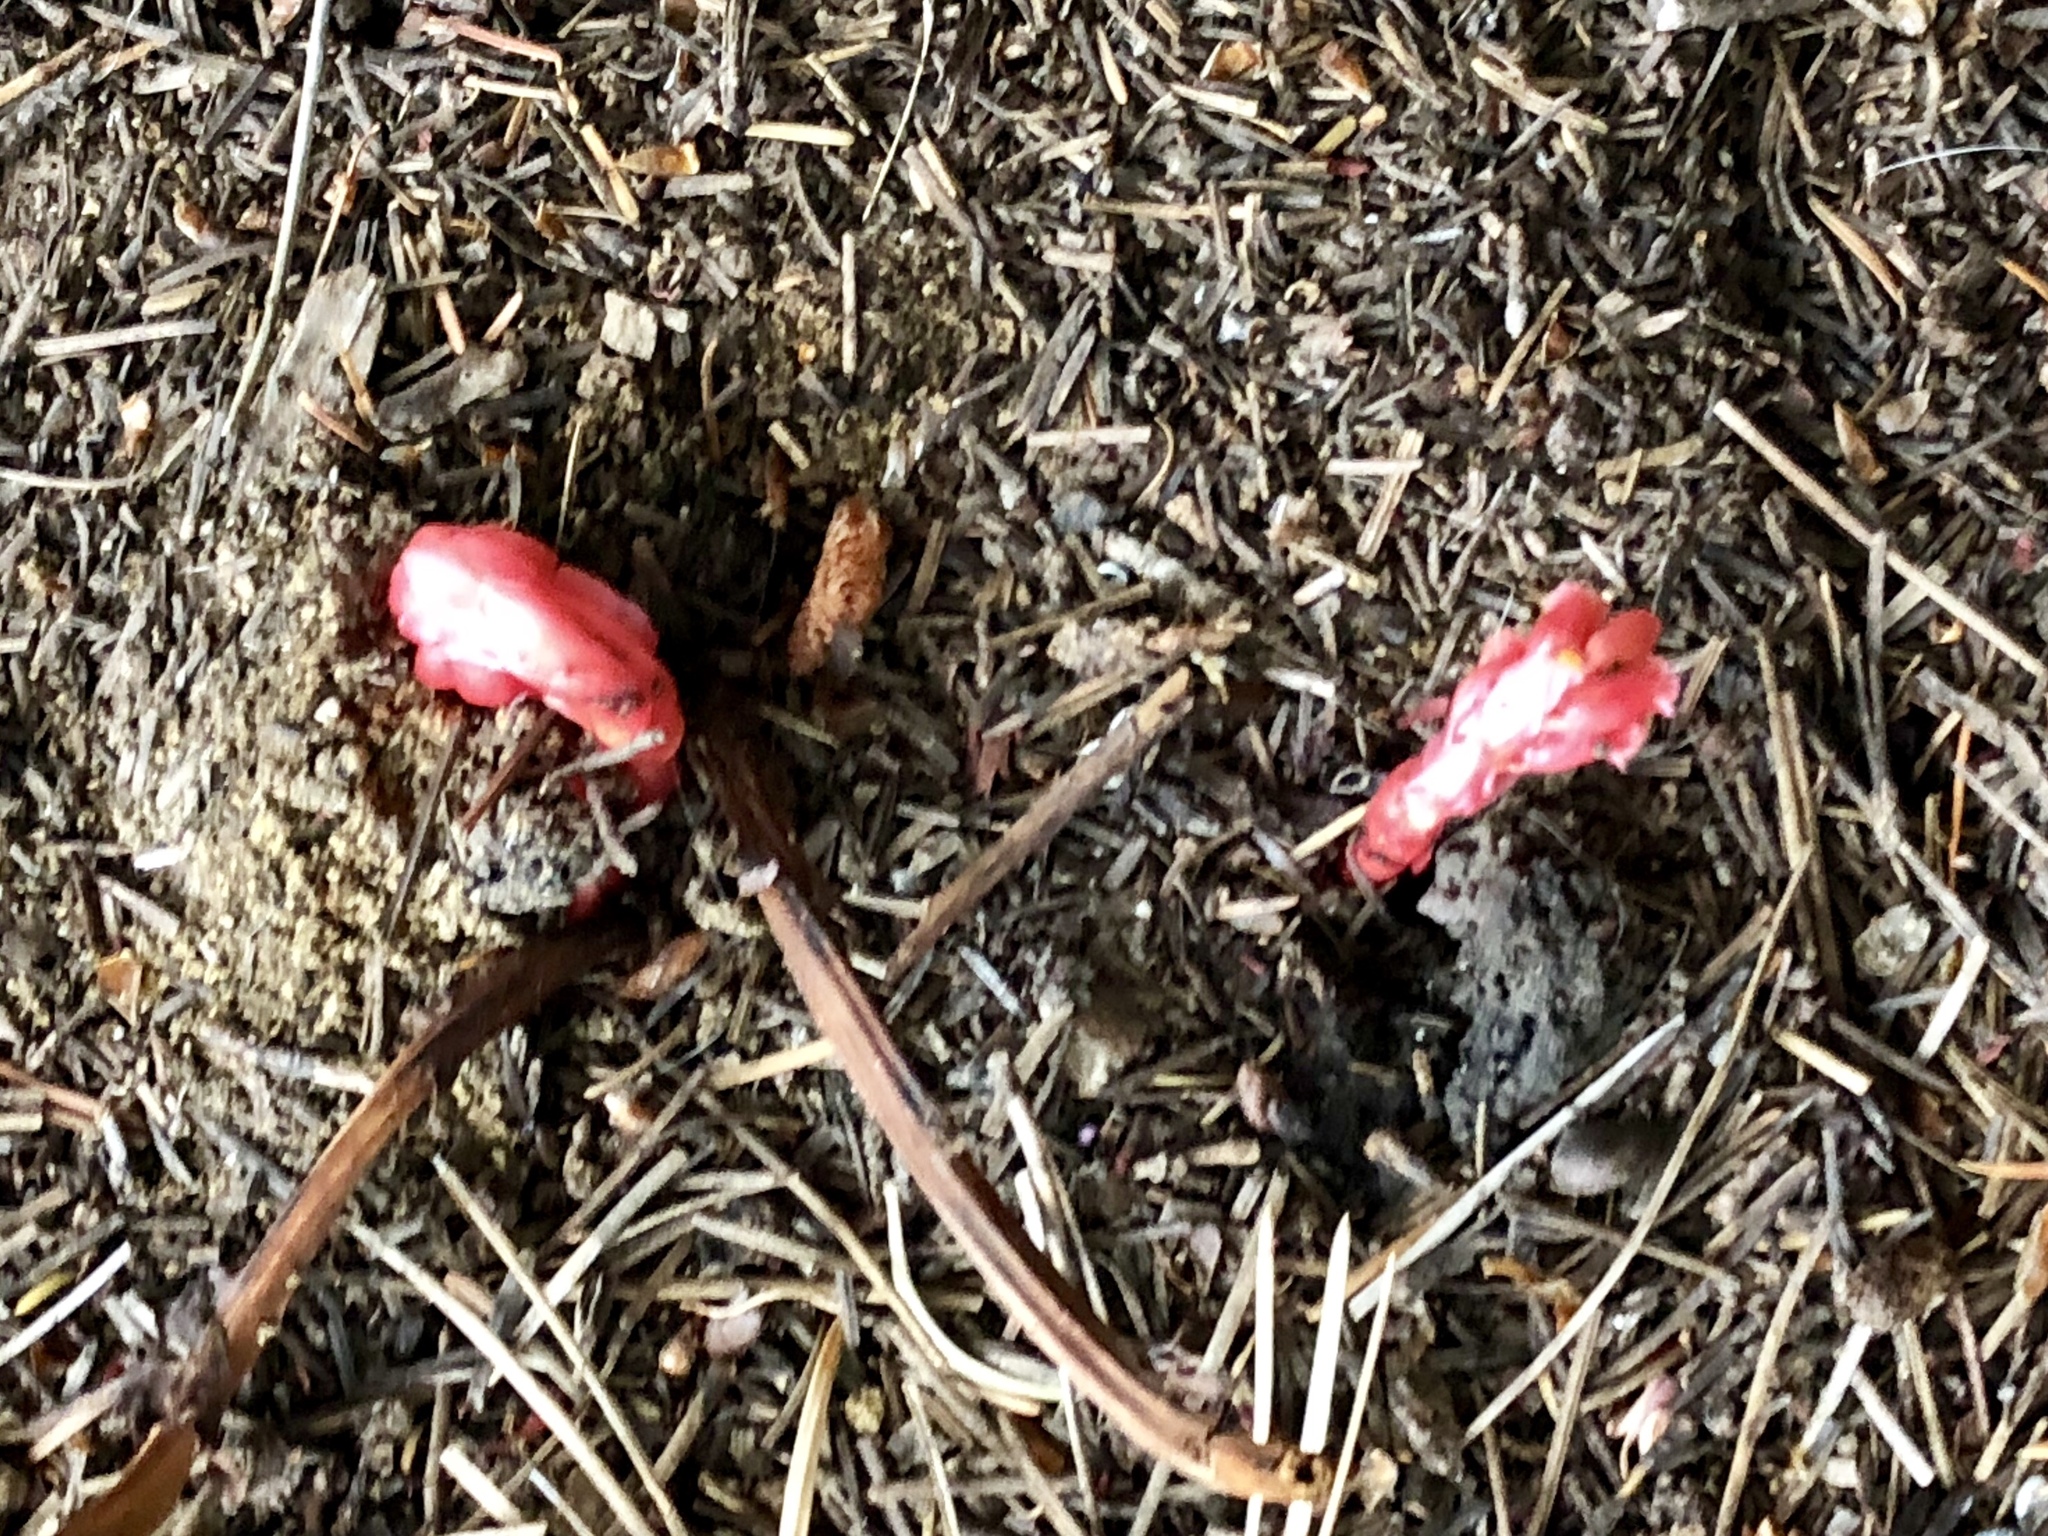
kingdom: Plantae
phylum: Tracheophyta
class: Magnoliopsida
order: Ericales
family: Ericaceae
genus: Hypopitys
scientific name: Hypopitys monotropa
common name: Yellow bird's-nest
